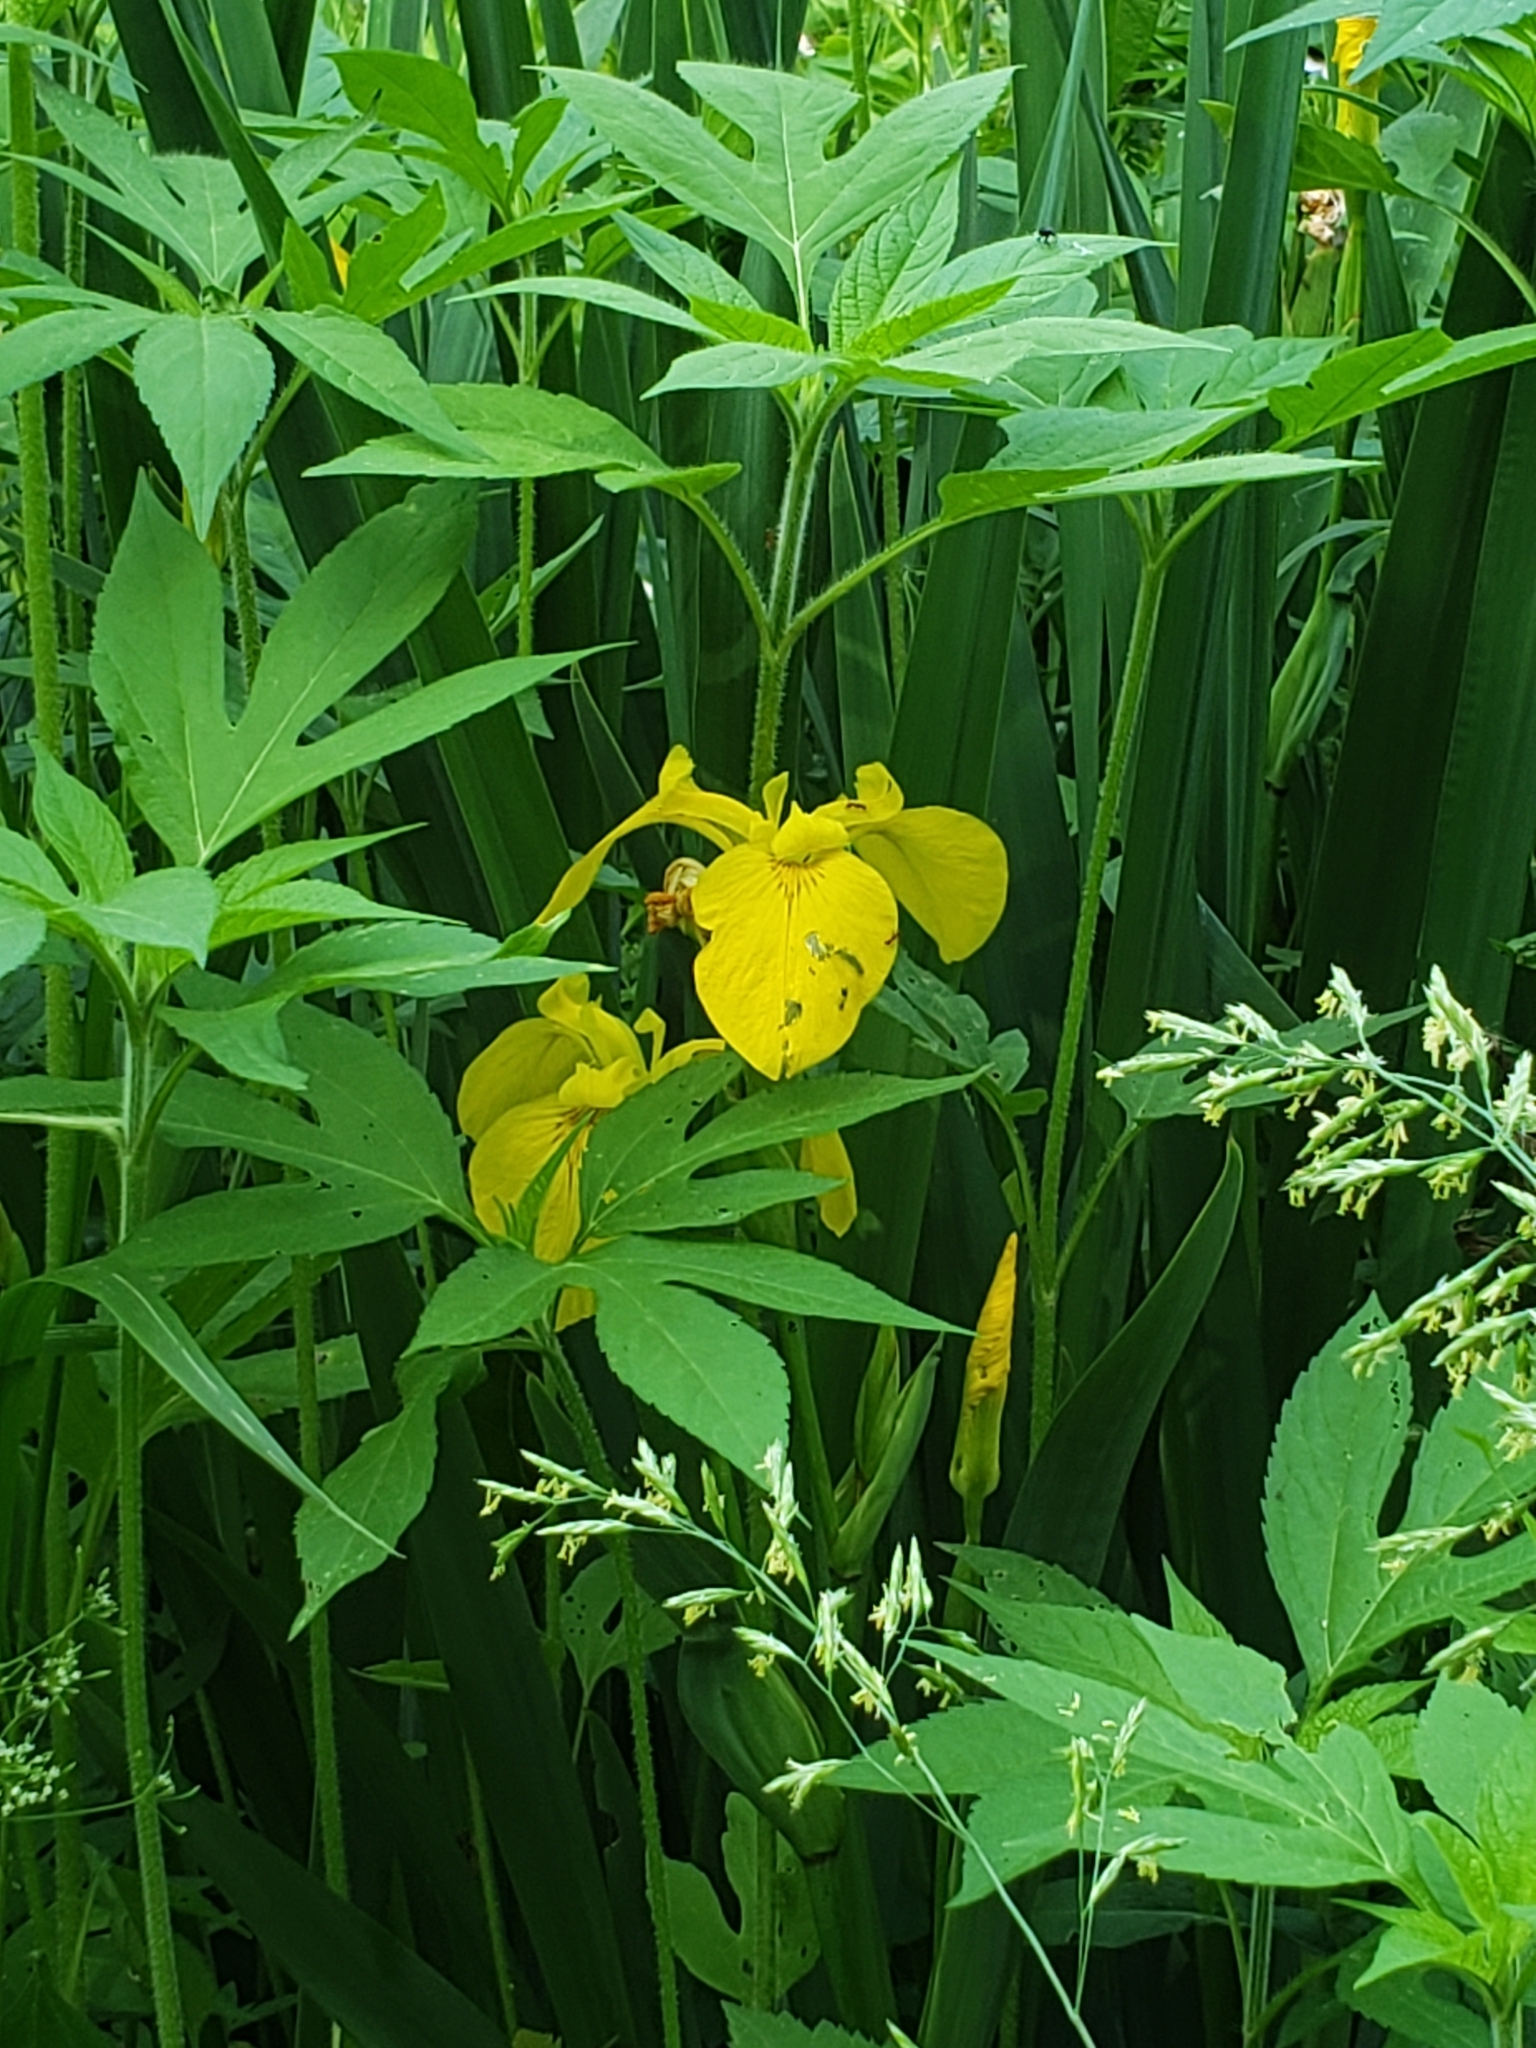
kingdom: Plantae
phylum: Tracheophyta
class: Liliopsida
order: Asparagales
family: Iridaceae
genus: Iris
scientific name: Iris pseudacorus
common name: Yellow flag
